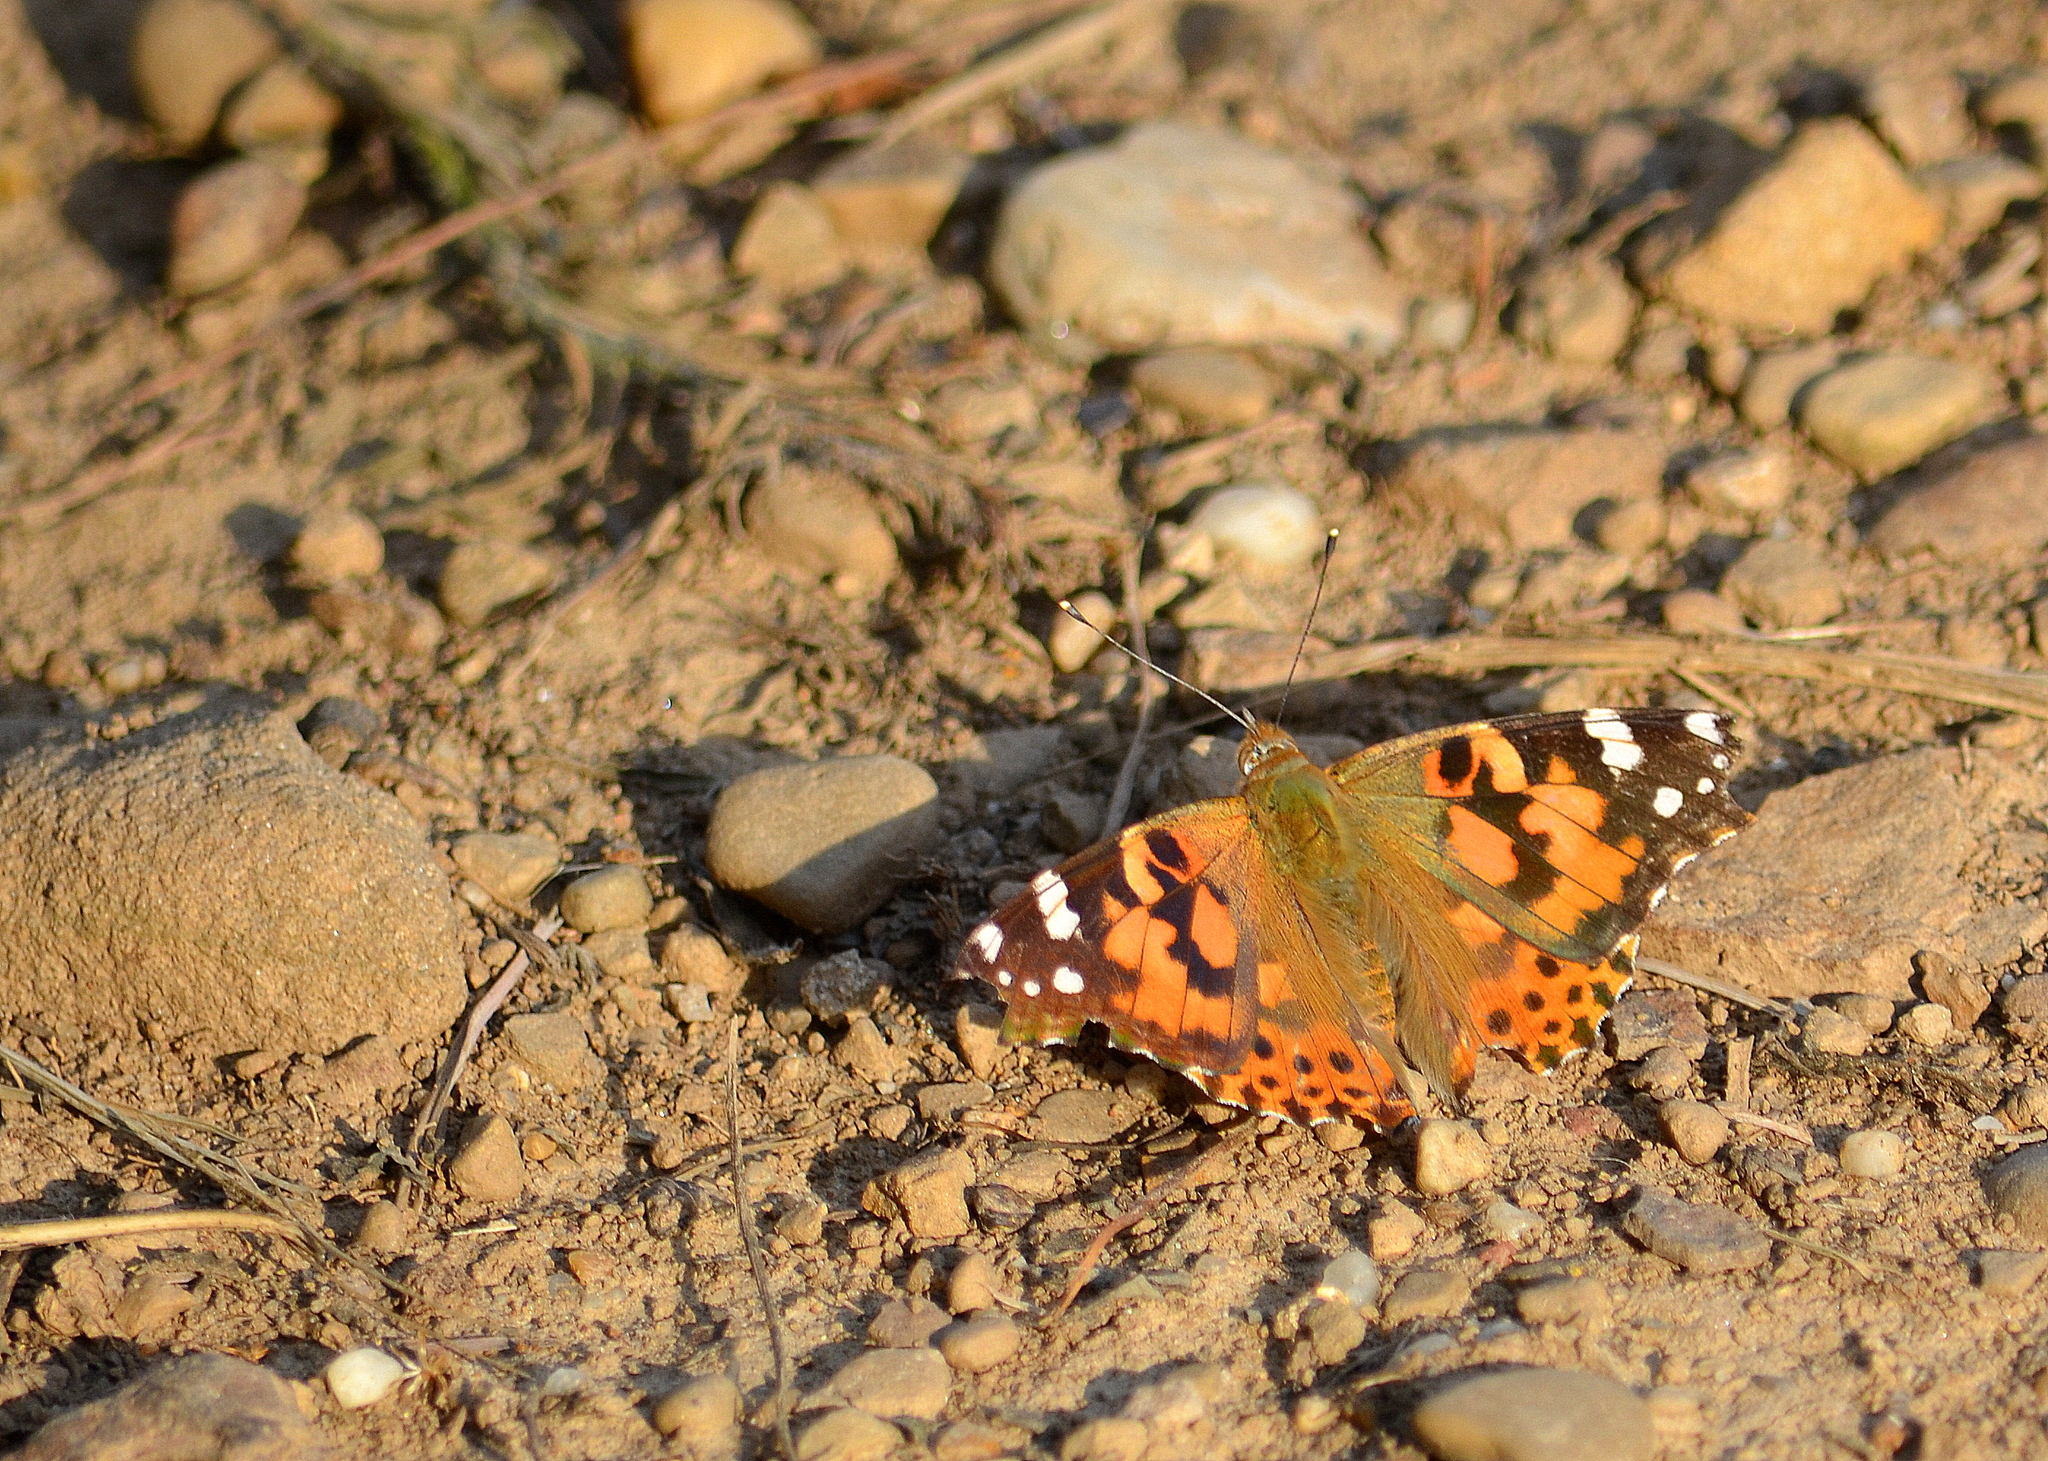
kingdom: Animalia
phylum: Arthropoda
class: Insecta
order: Lepidoptera
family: Nymphalidae
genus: Vanessa
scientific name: Vanessa cardui
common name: Painted lady
